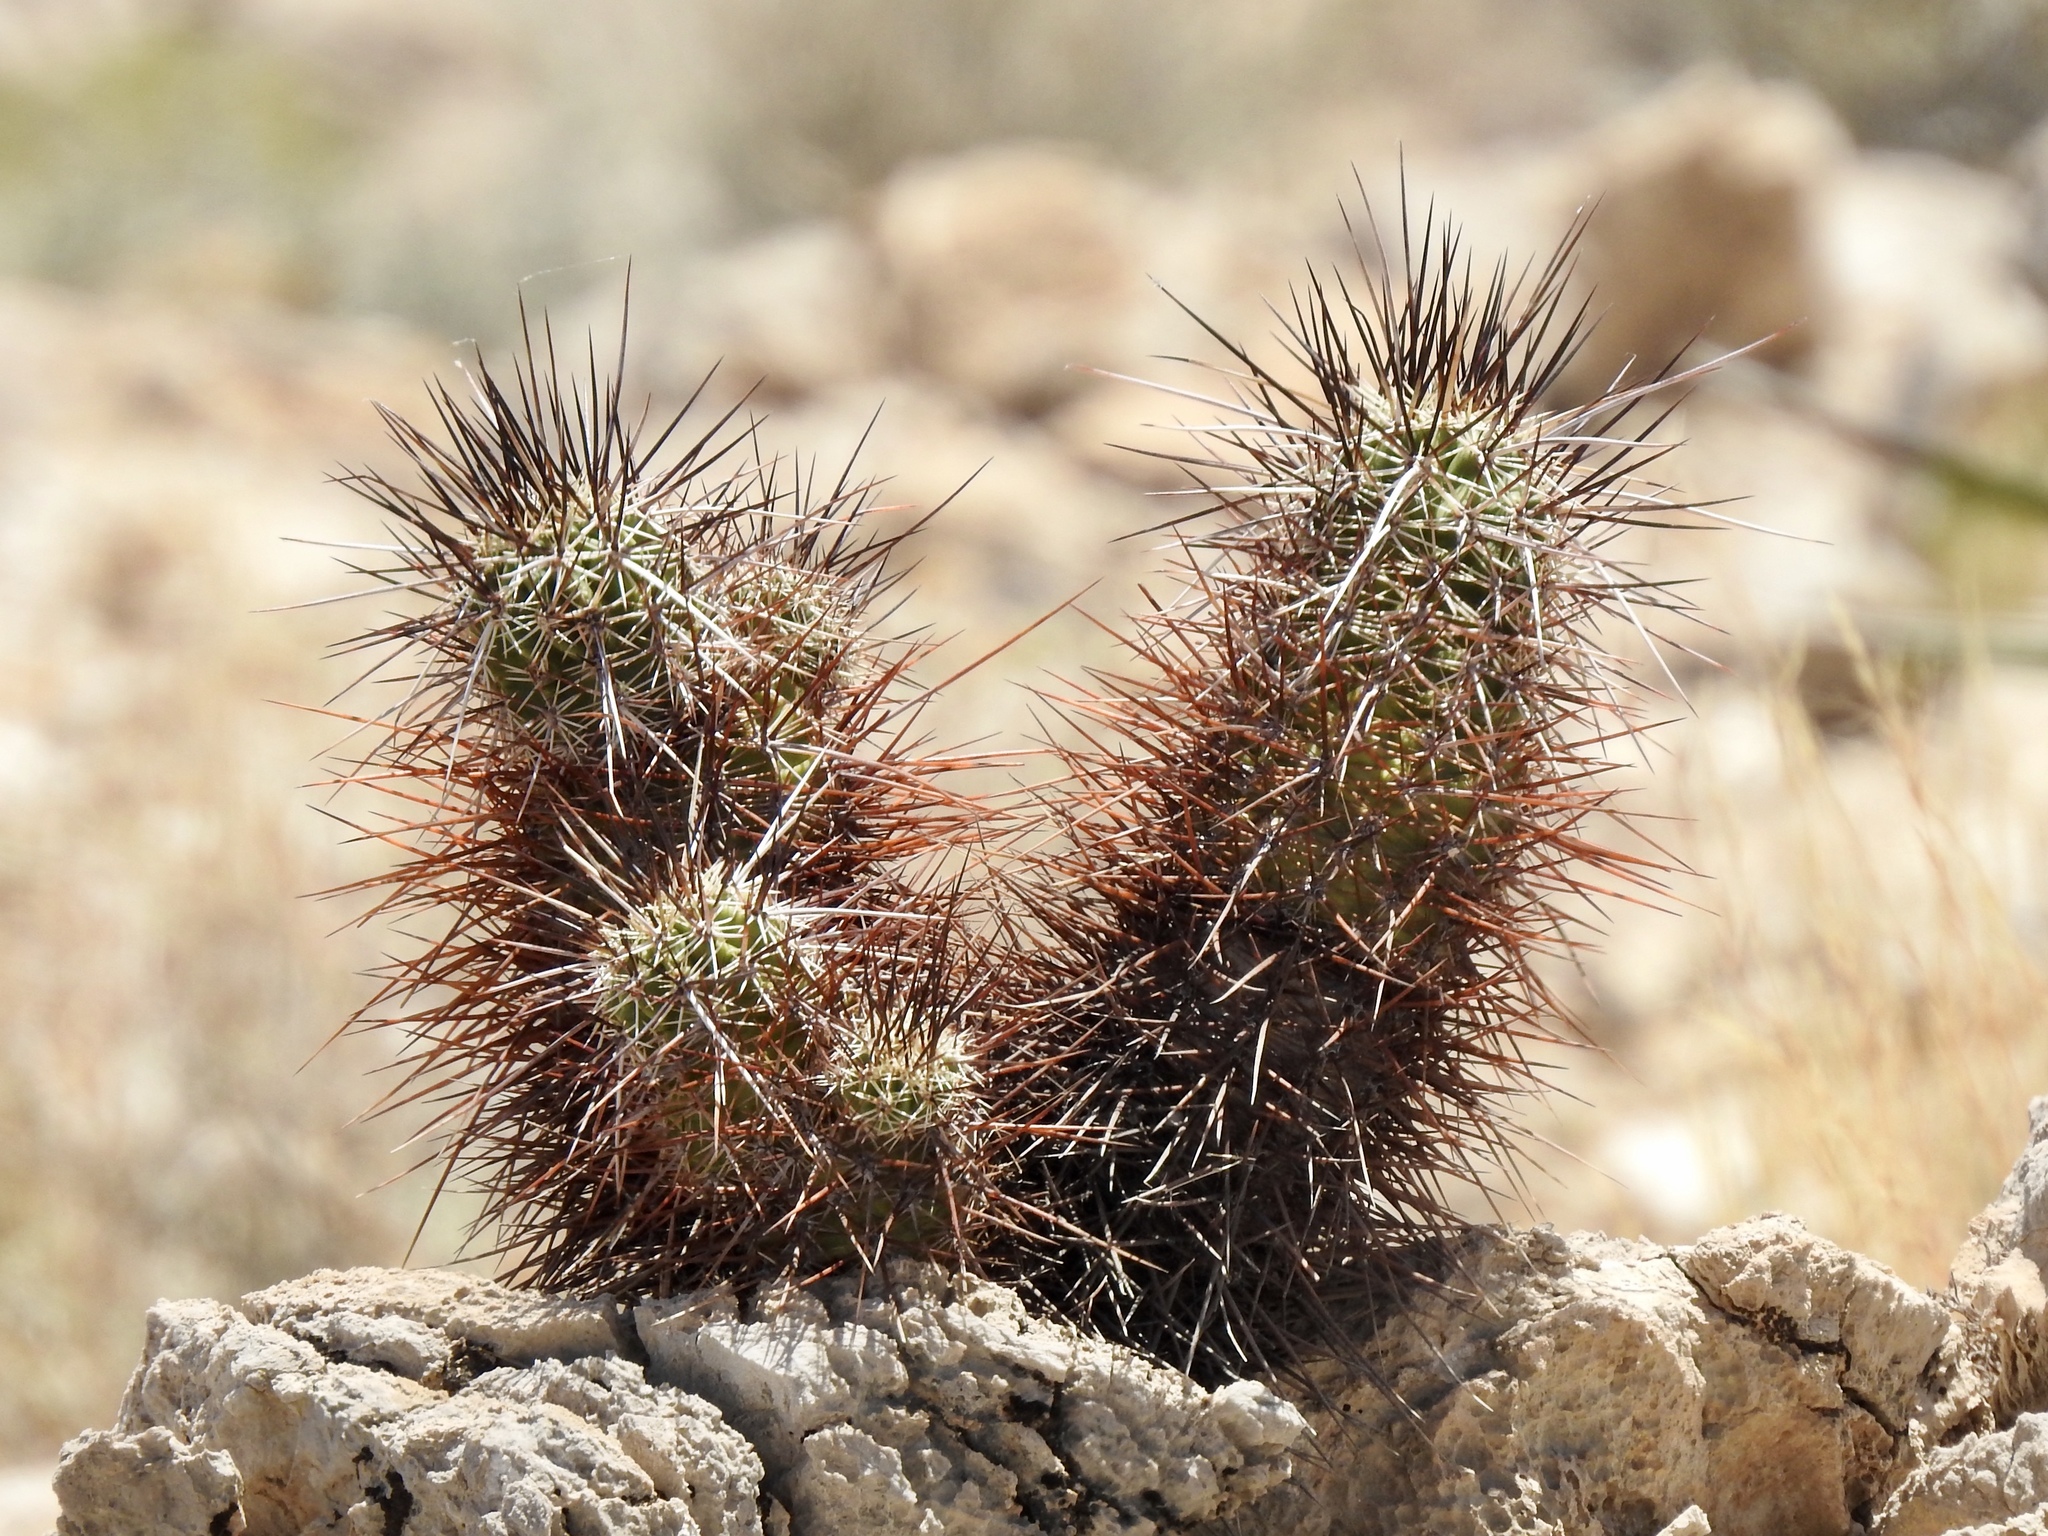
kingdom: Plantae
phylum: Tracheophyta
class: Magnoliopsida
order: Caryophyllales
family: Cactaceae
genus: Echinocereus
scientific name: Echinocereus engelmannii
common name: Engelmann's hedgehog cactus
